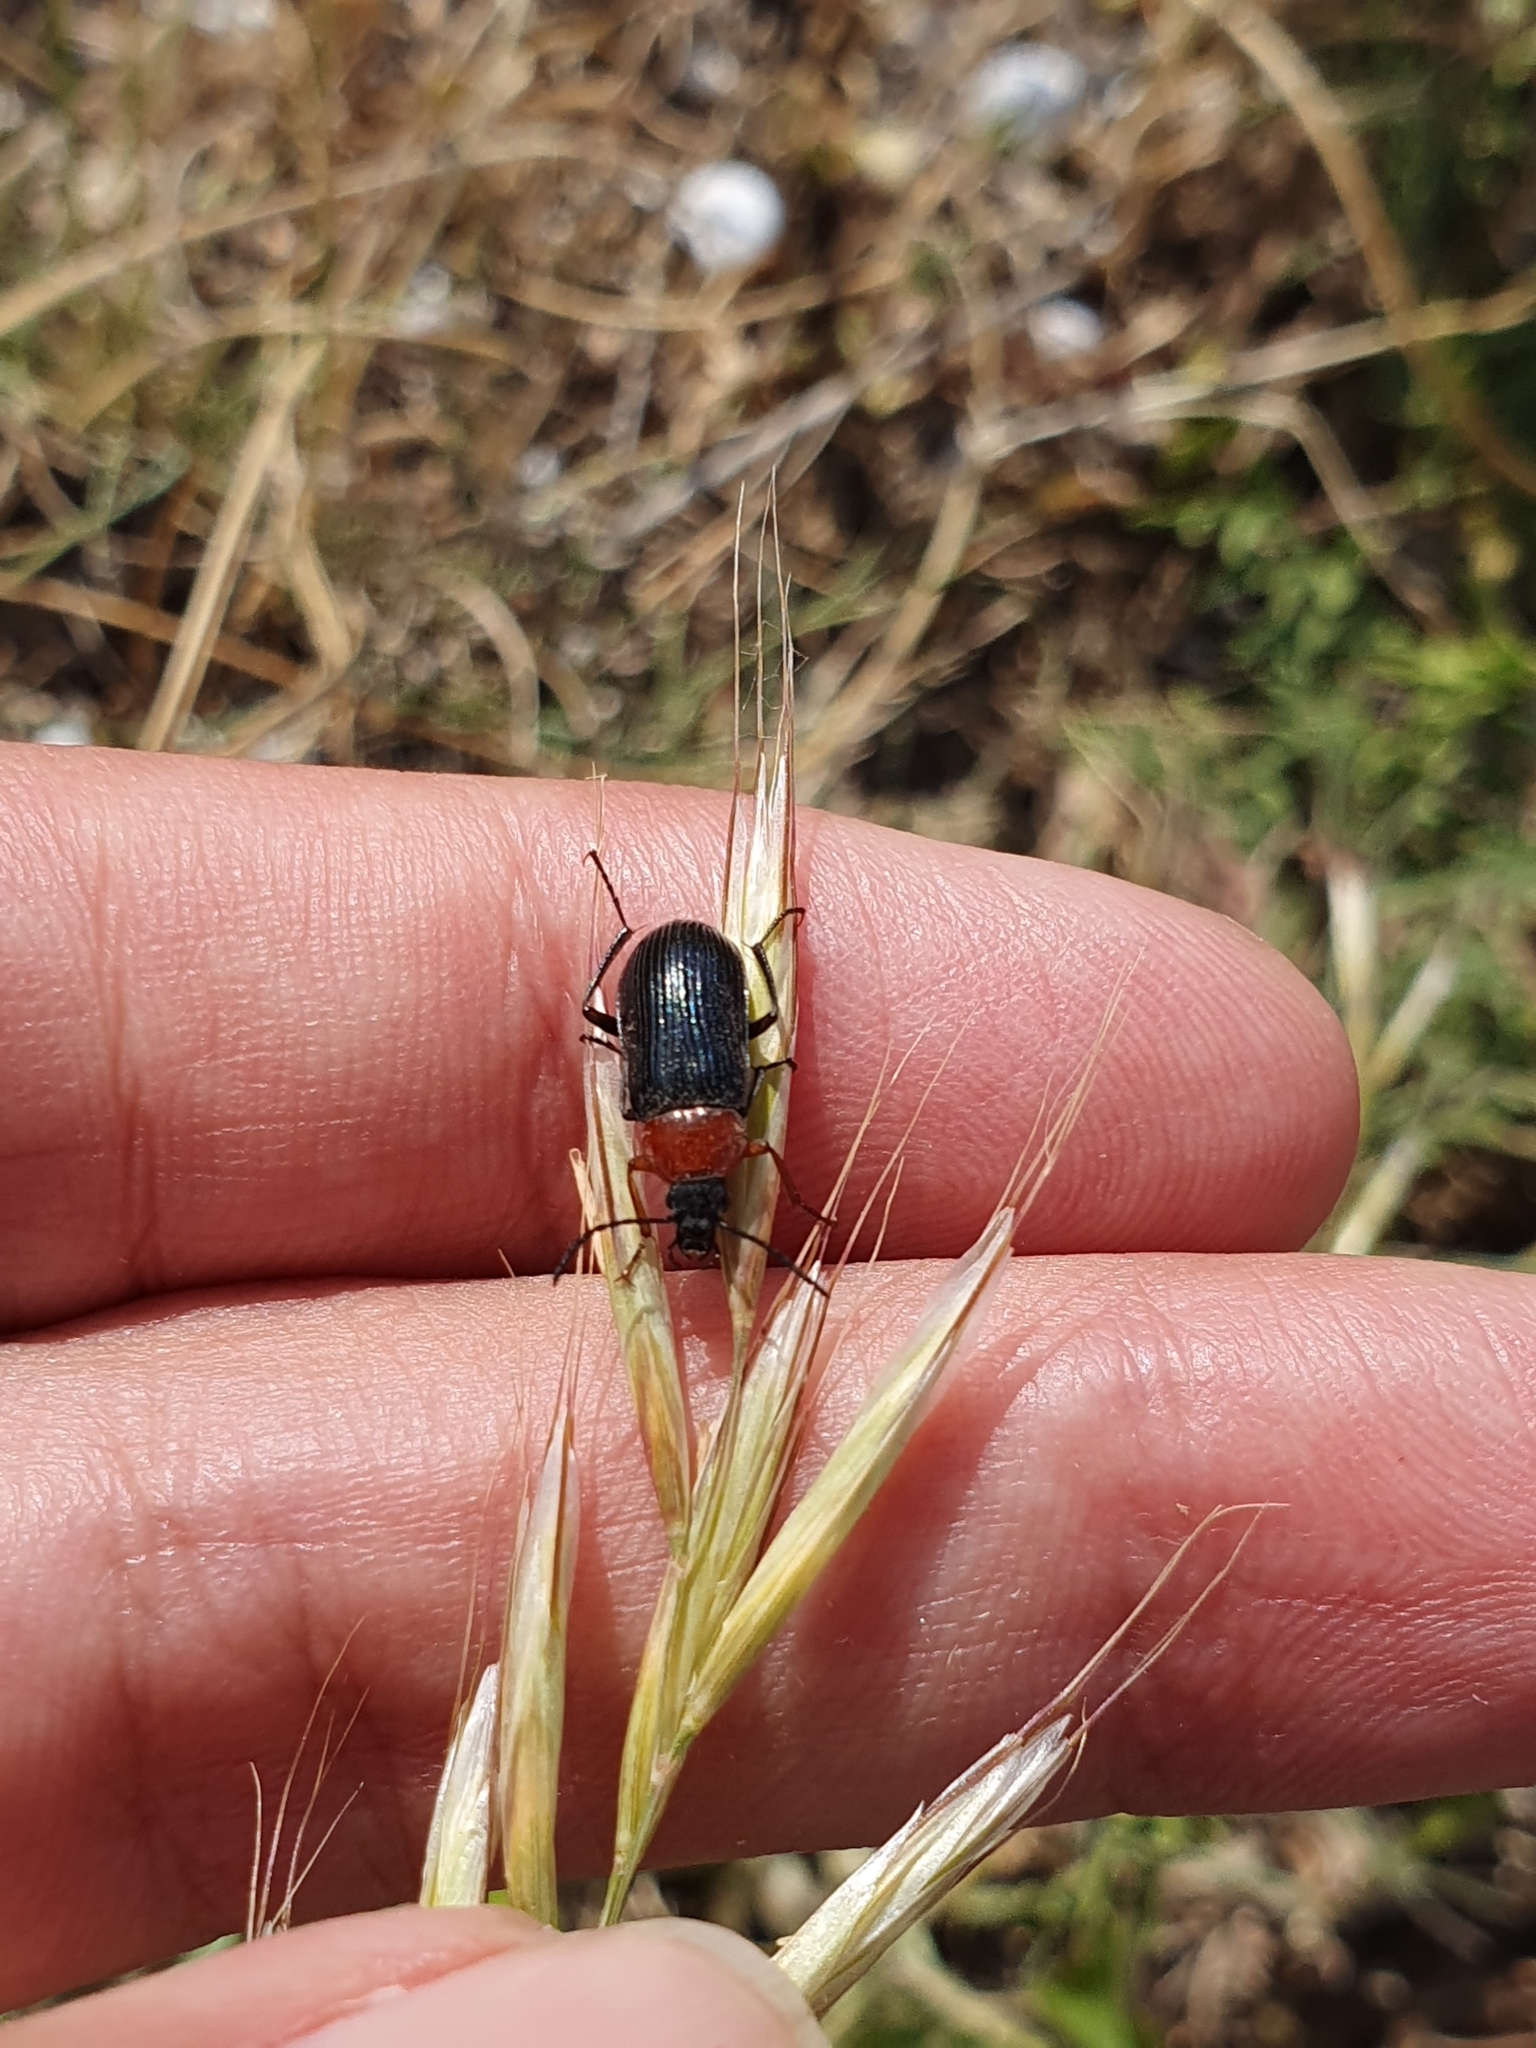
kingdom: Animalia
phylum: Arthropoda
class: Insecta
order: Coleoptera
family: Tenebrionidae
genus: Heliotaurus
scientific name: Heliotaurus ruficollis
